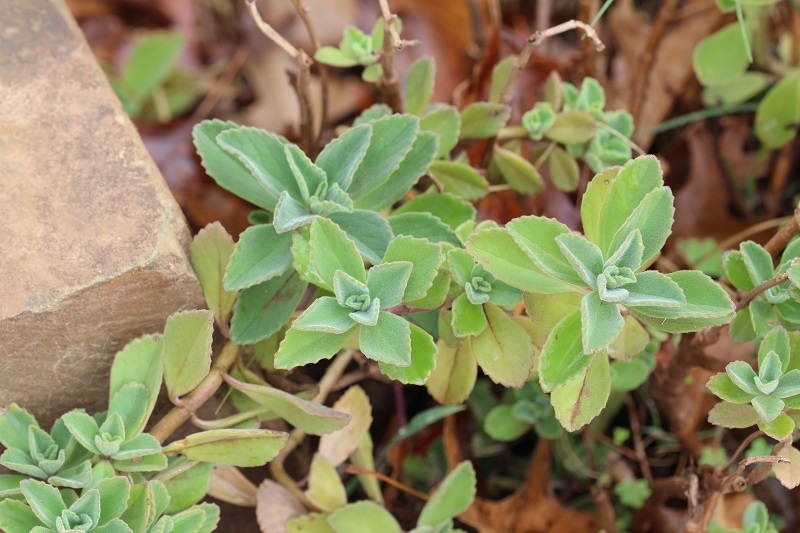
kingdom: Plantae
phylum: Tracheophyta
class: Magnoliopsida
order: Lamiales
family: Lamiaceae
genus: Coleus
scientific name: Coleus neochilus
